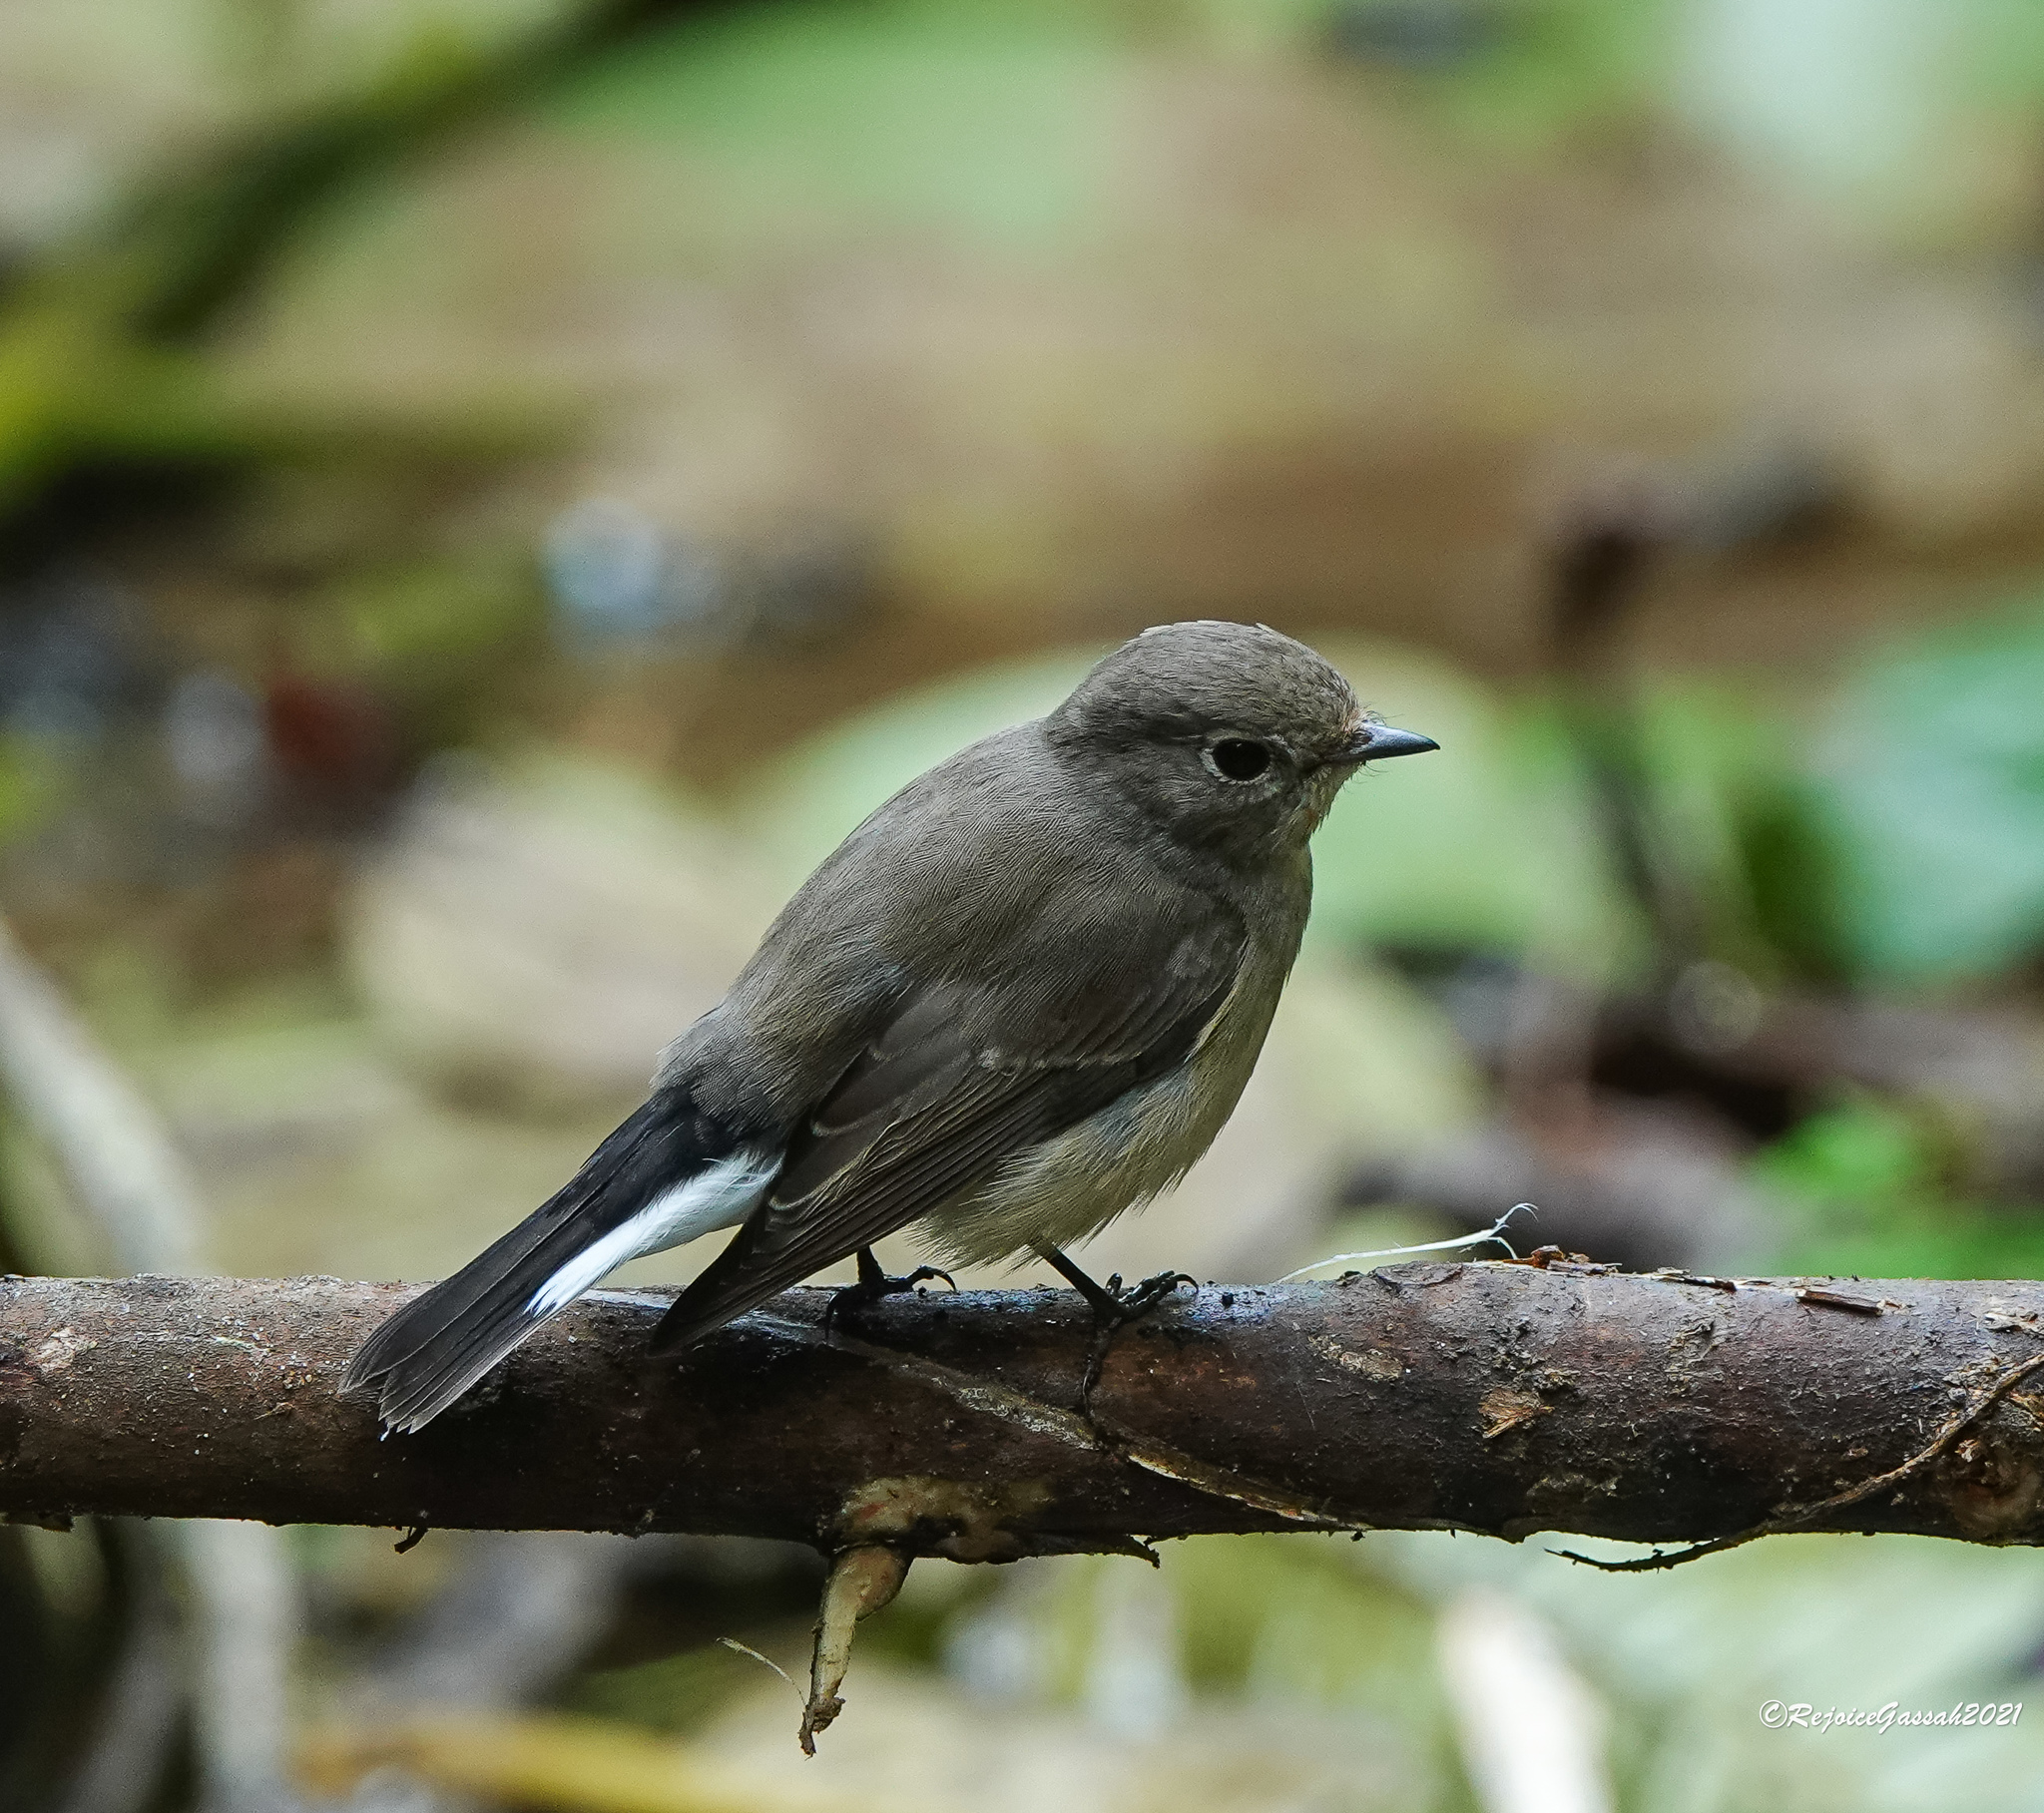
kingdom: Animalia
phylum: Chordata
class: Aves
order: Passeriformes
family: Muscicapidae
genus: Ficedula
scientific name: Ficedula albicilla
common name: Taiga flycatcher
